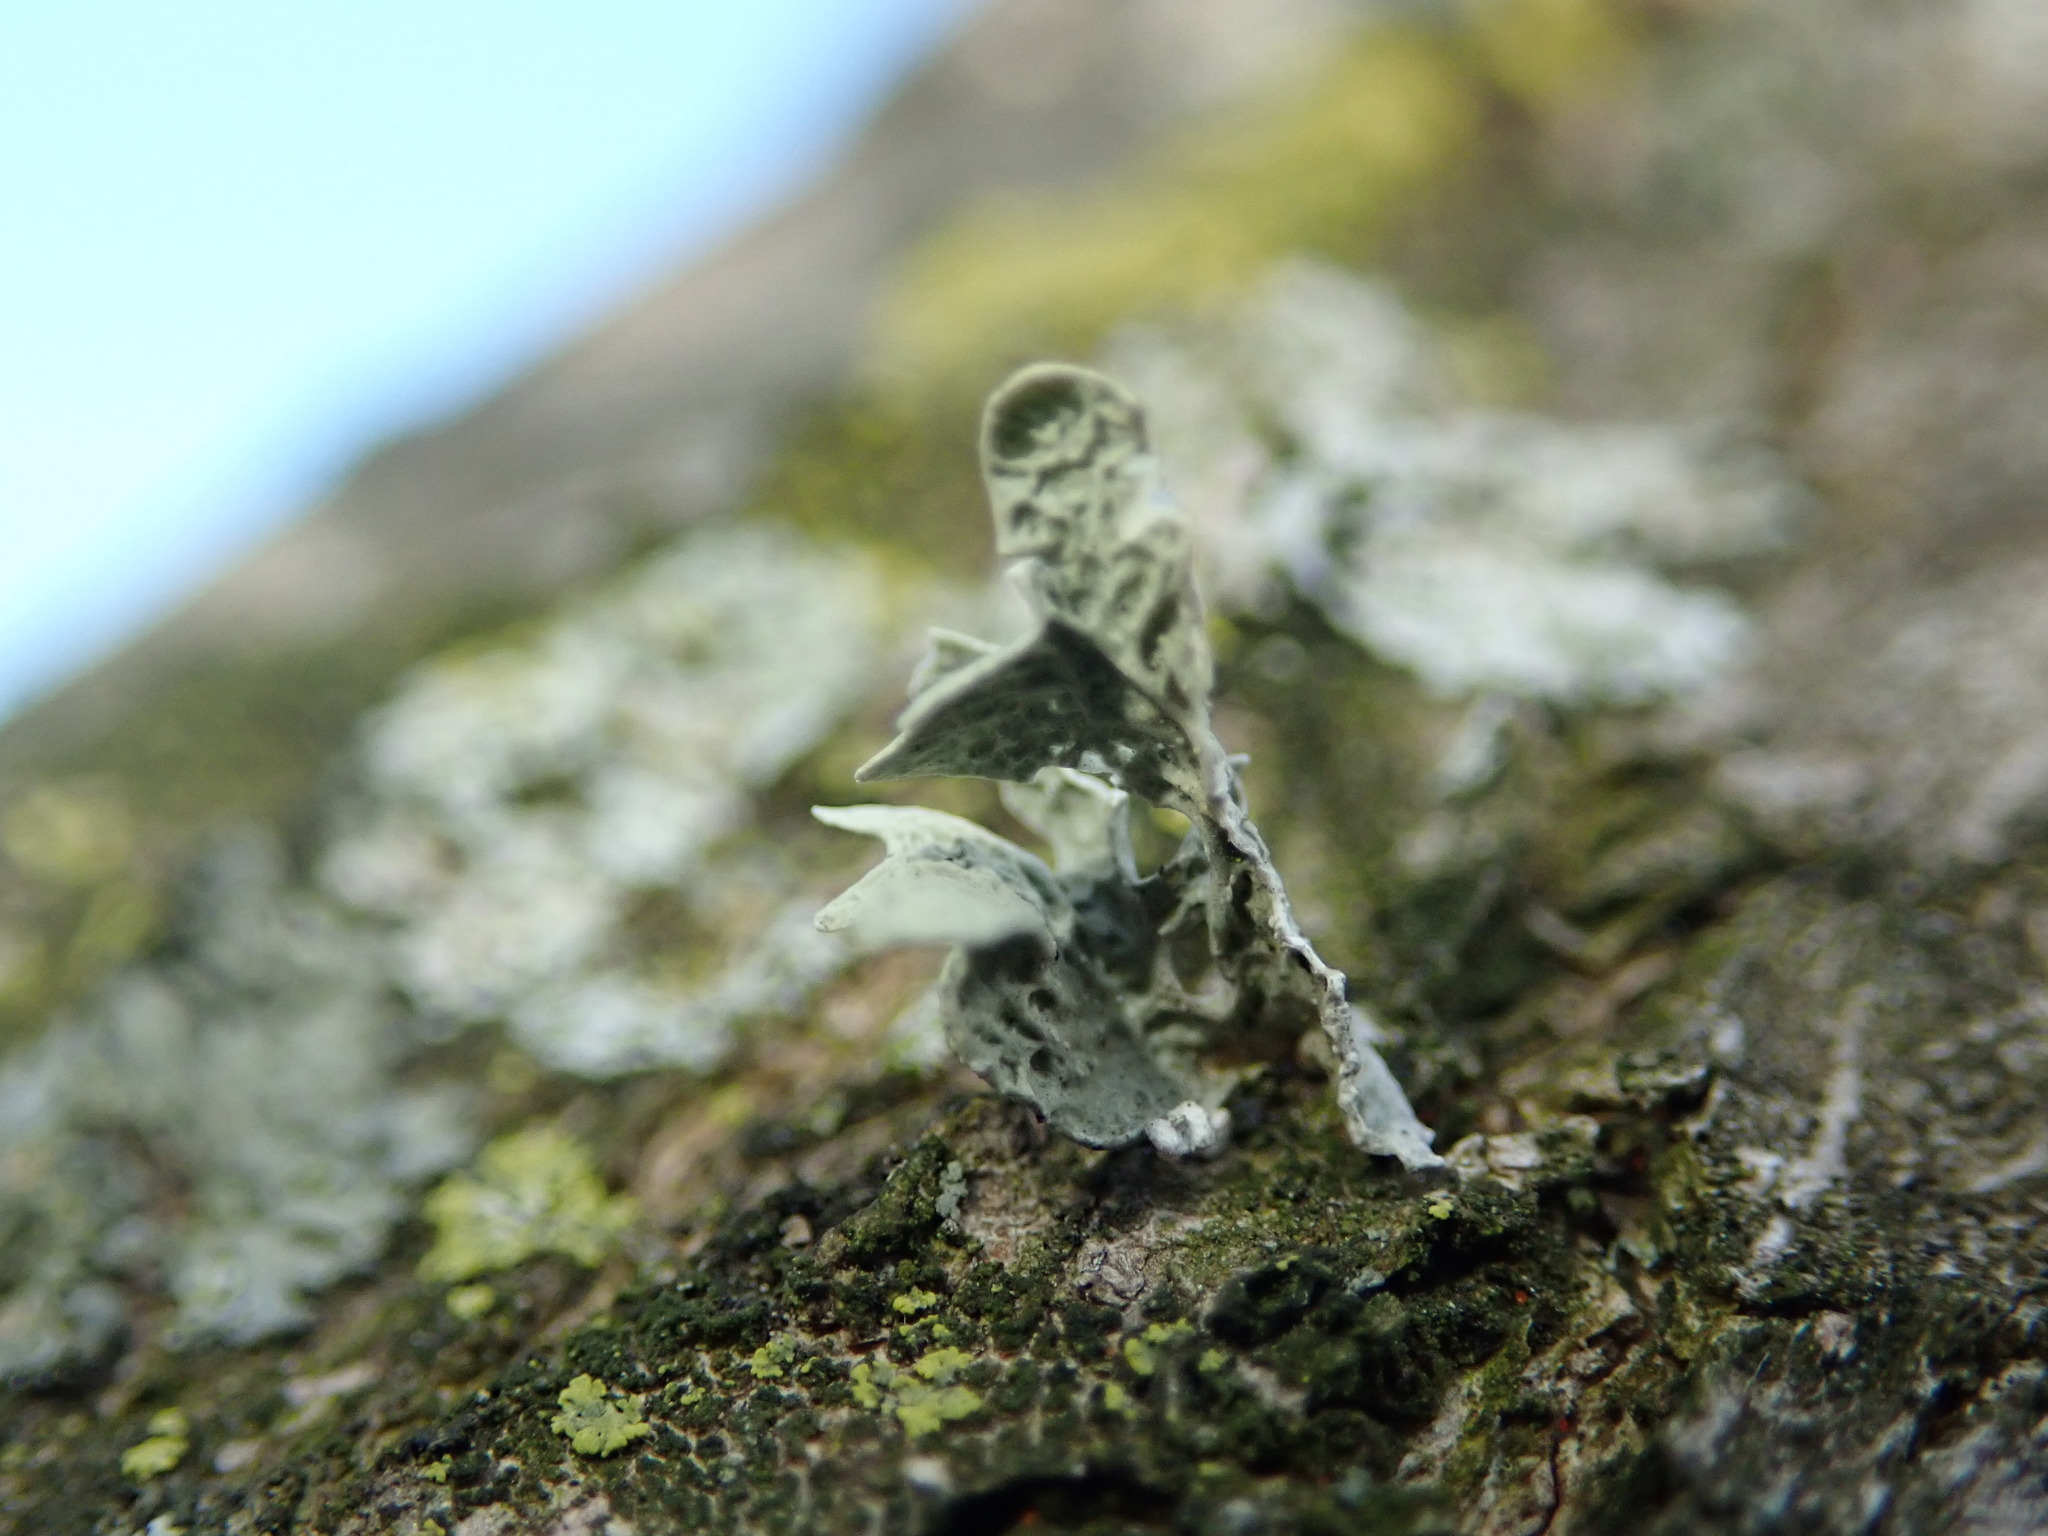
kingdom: Fungi
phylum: Ascomycota
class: Lecanoromycetes
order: Lecanorales
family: Ramalinaceae
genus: Ramalina
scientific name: Ramalina americana
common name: Sinewed bush lichen
